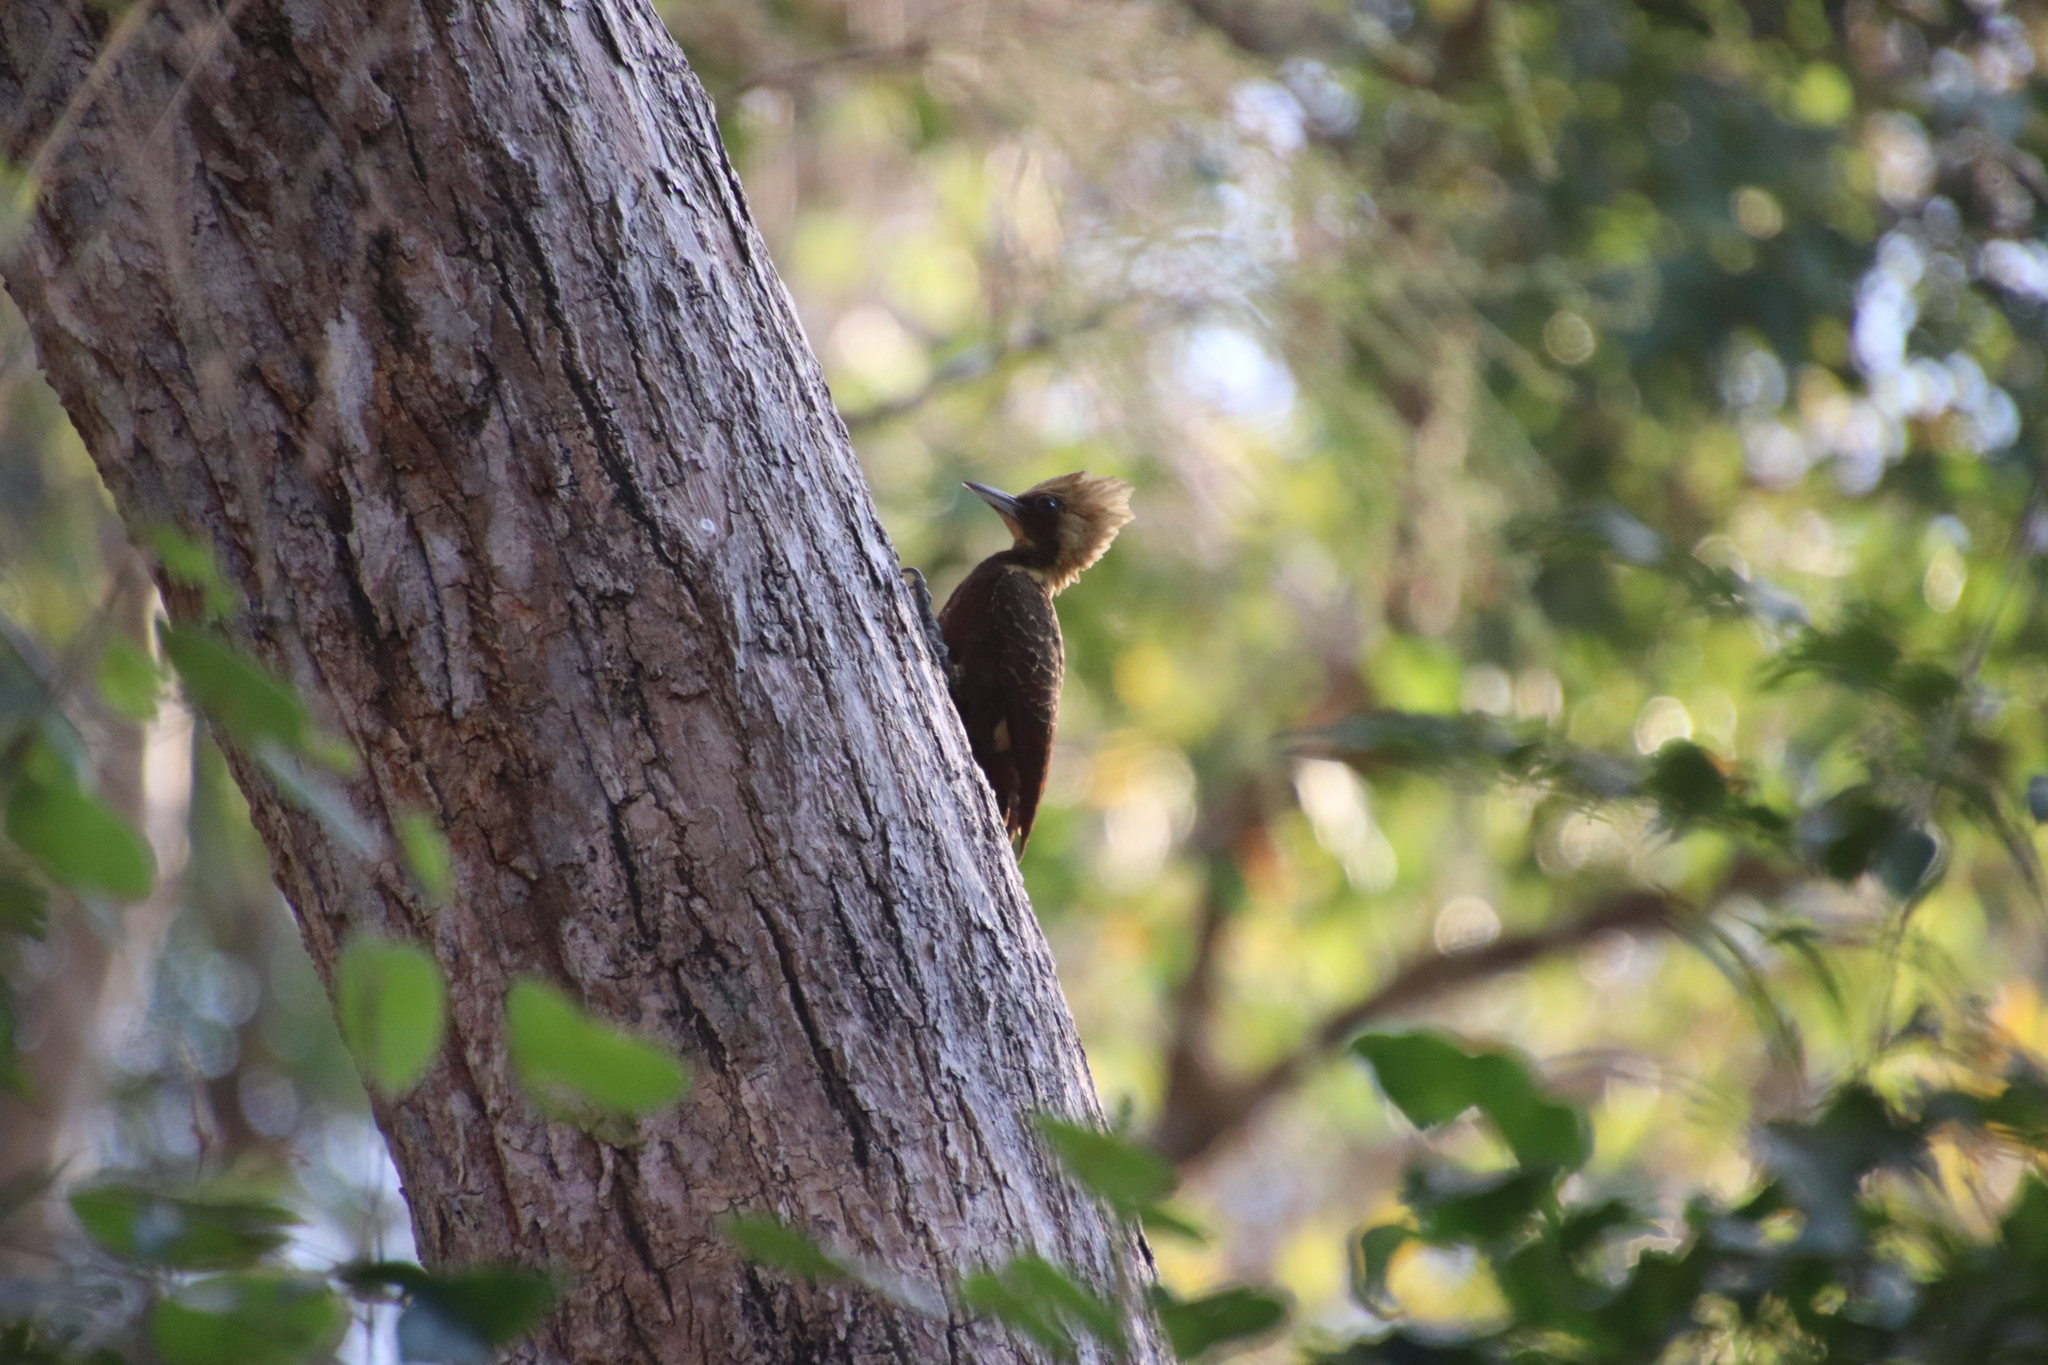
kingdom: Animalia
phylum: Chordata
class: Aves
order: Piciformes
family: Picidae
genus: Celeus
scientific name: Celeus lugubris
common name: Pale-crested woodpecker
